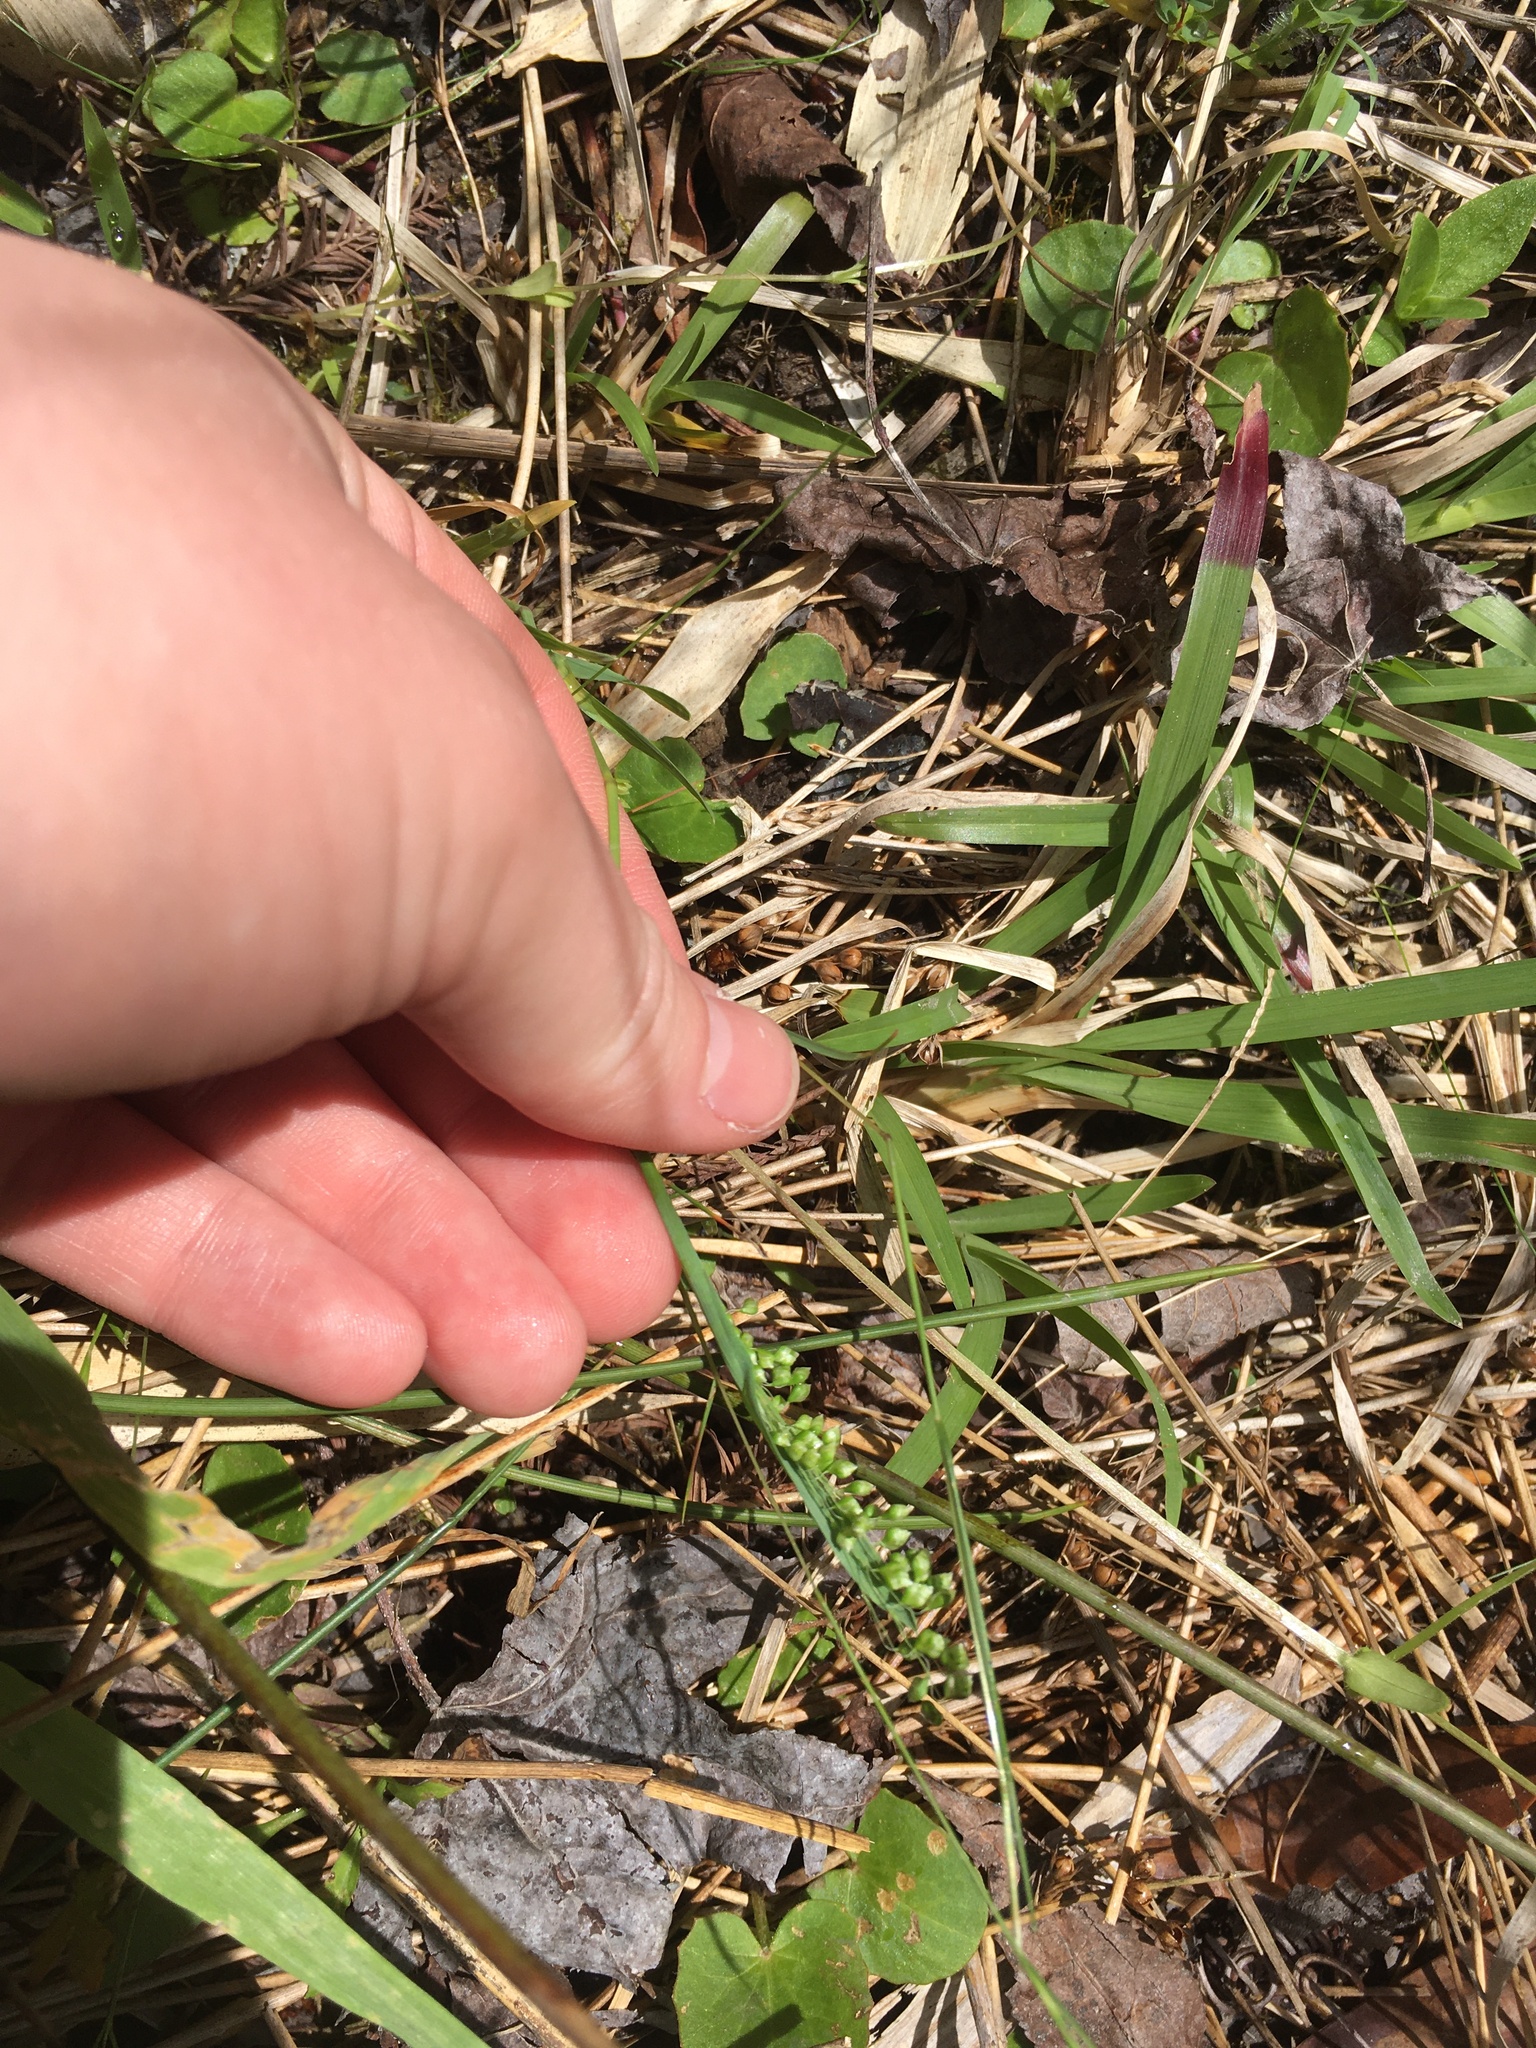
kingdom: Plantae
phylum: Tracheophyta
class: Liliopsida
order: Poales
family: Poaceae
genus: Briza
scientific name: Briza minor
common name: Lesser quaking-grass
